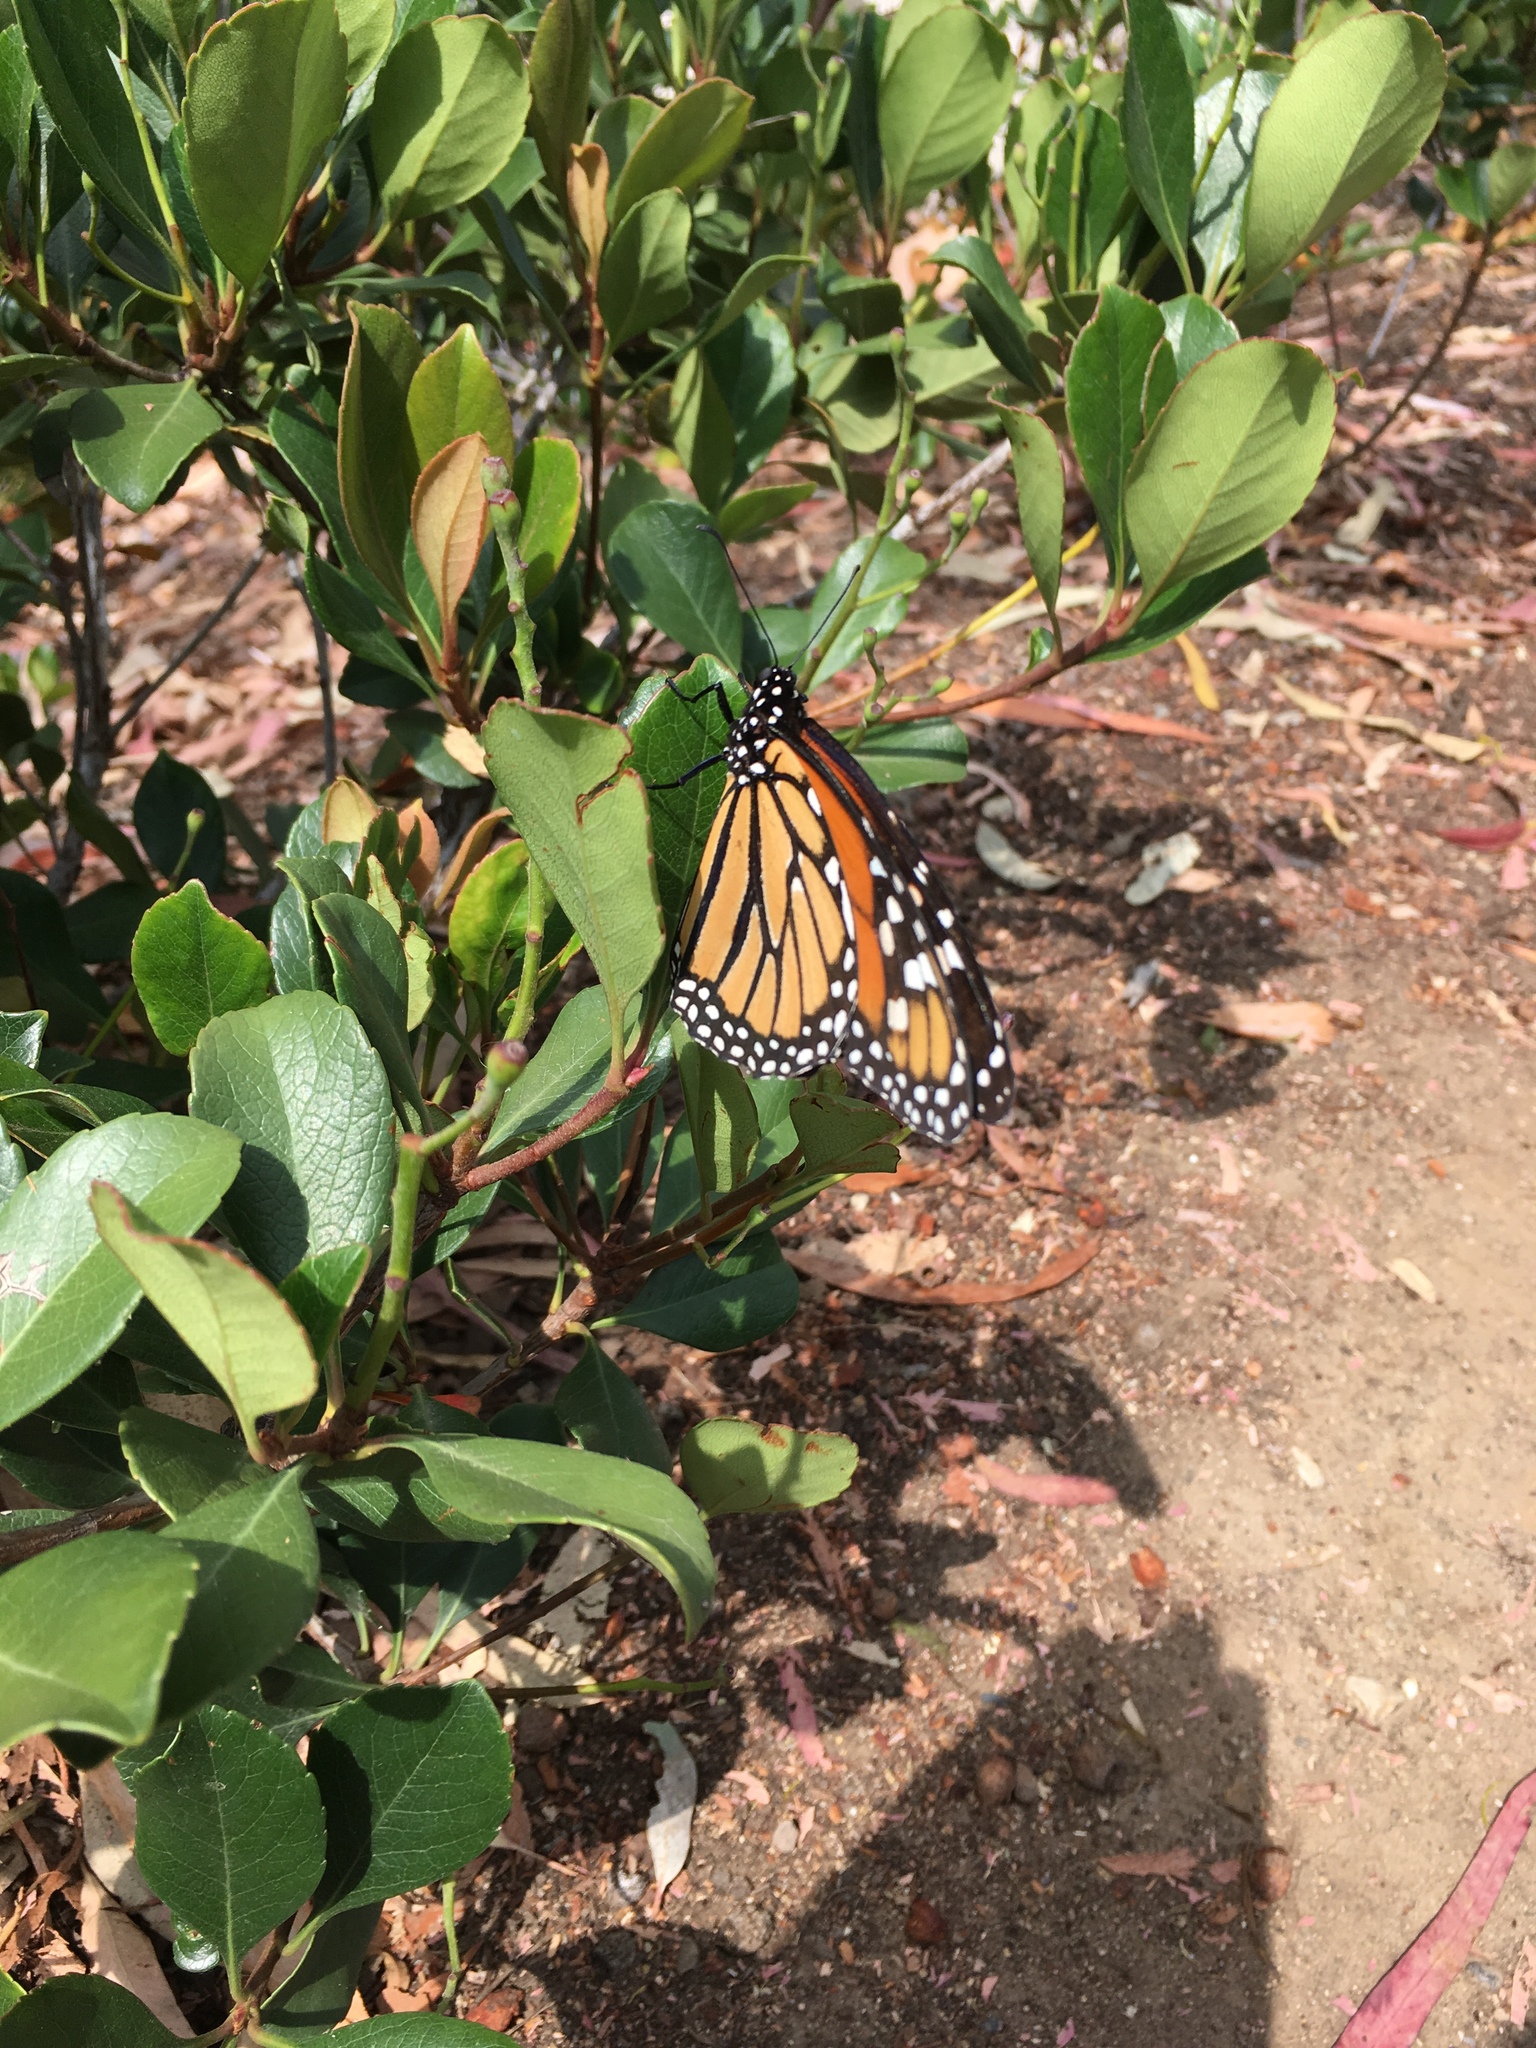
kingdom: Animalia
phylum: Arthropoda
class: Insecta
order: Lepidoptera
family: Nymphalidae
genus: Danaus
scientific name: Danaus plexippus
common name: Monarch
